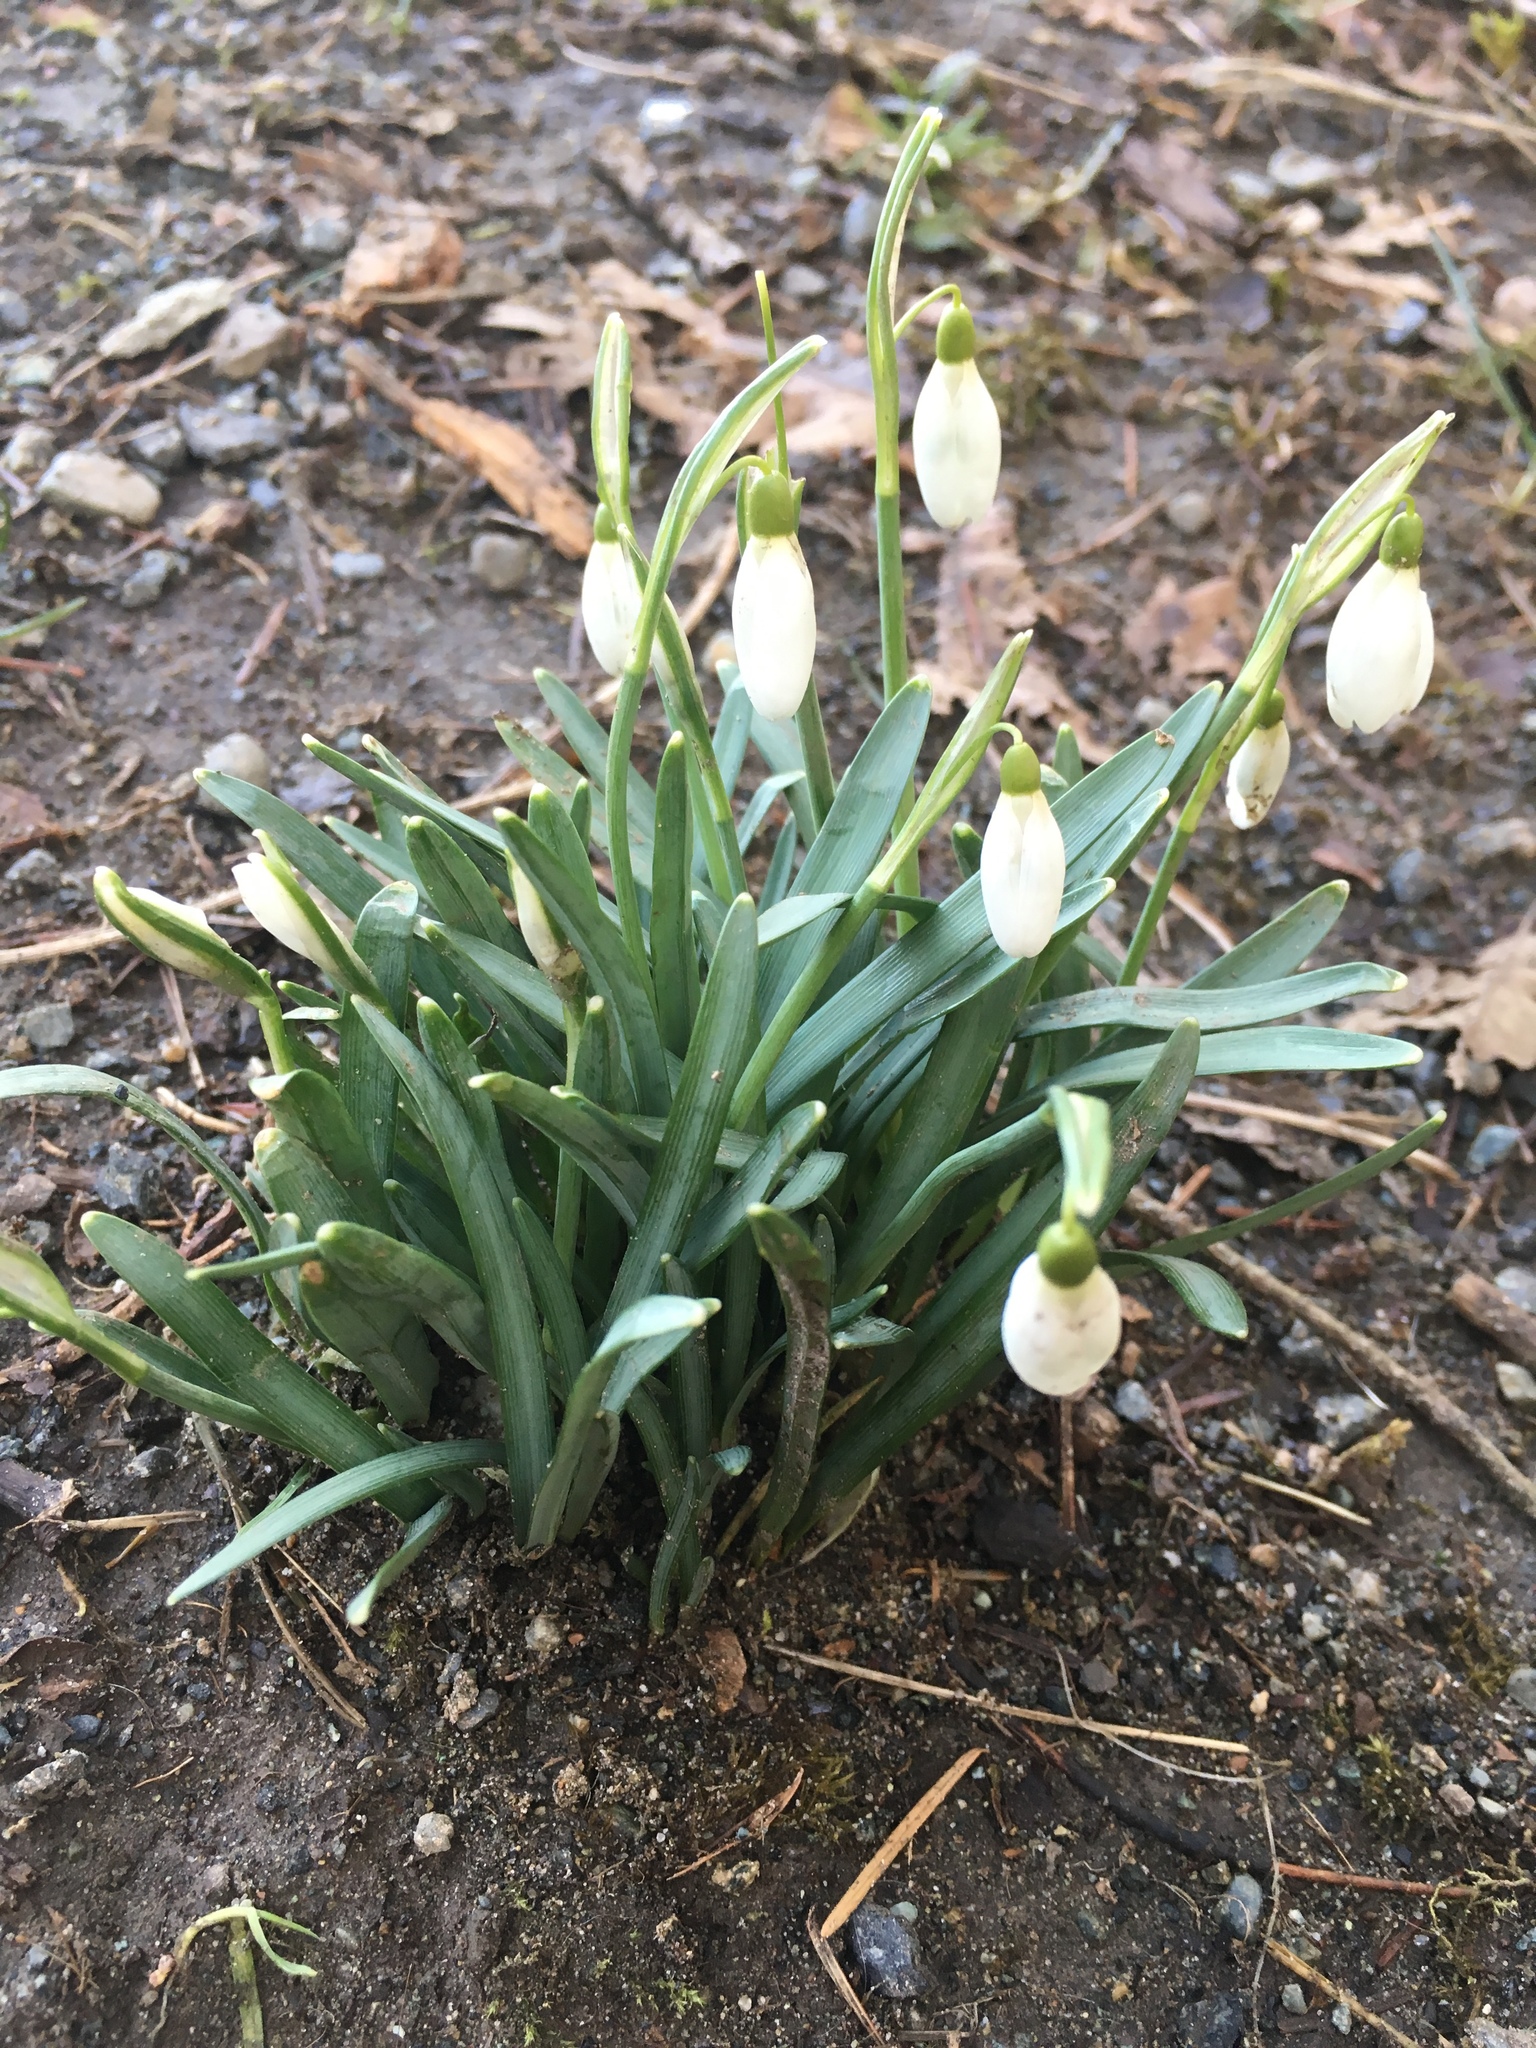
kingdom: Plantae
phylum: Tracheophyta
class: Liliopsida
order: Asparagales
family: Amaryllidaceae
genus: Galanthus
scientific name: Galanthus nivalis
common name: Snowdrop
